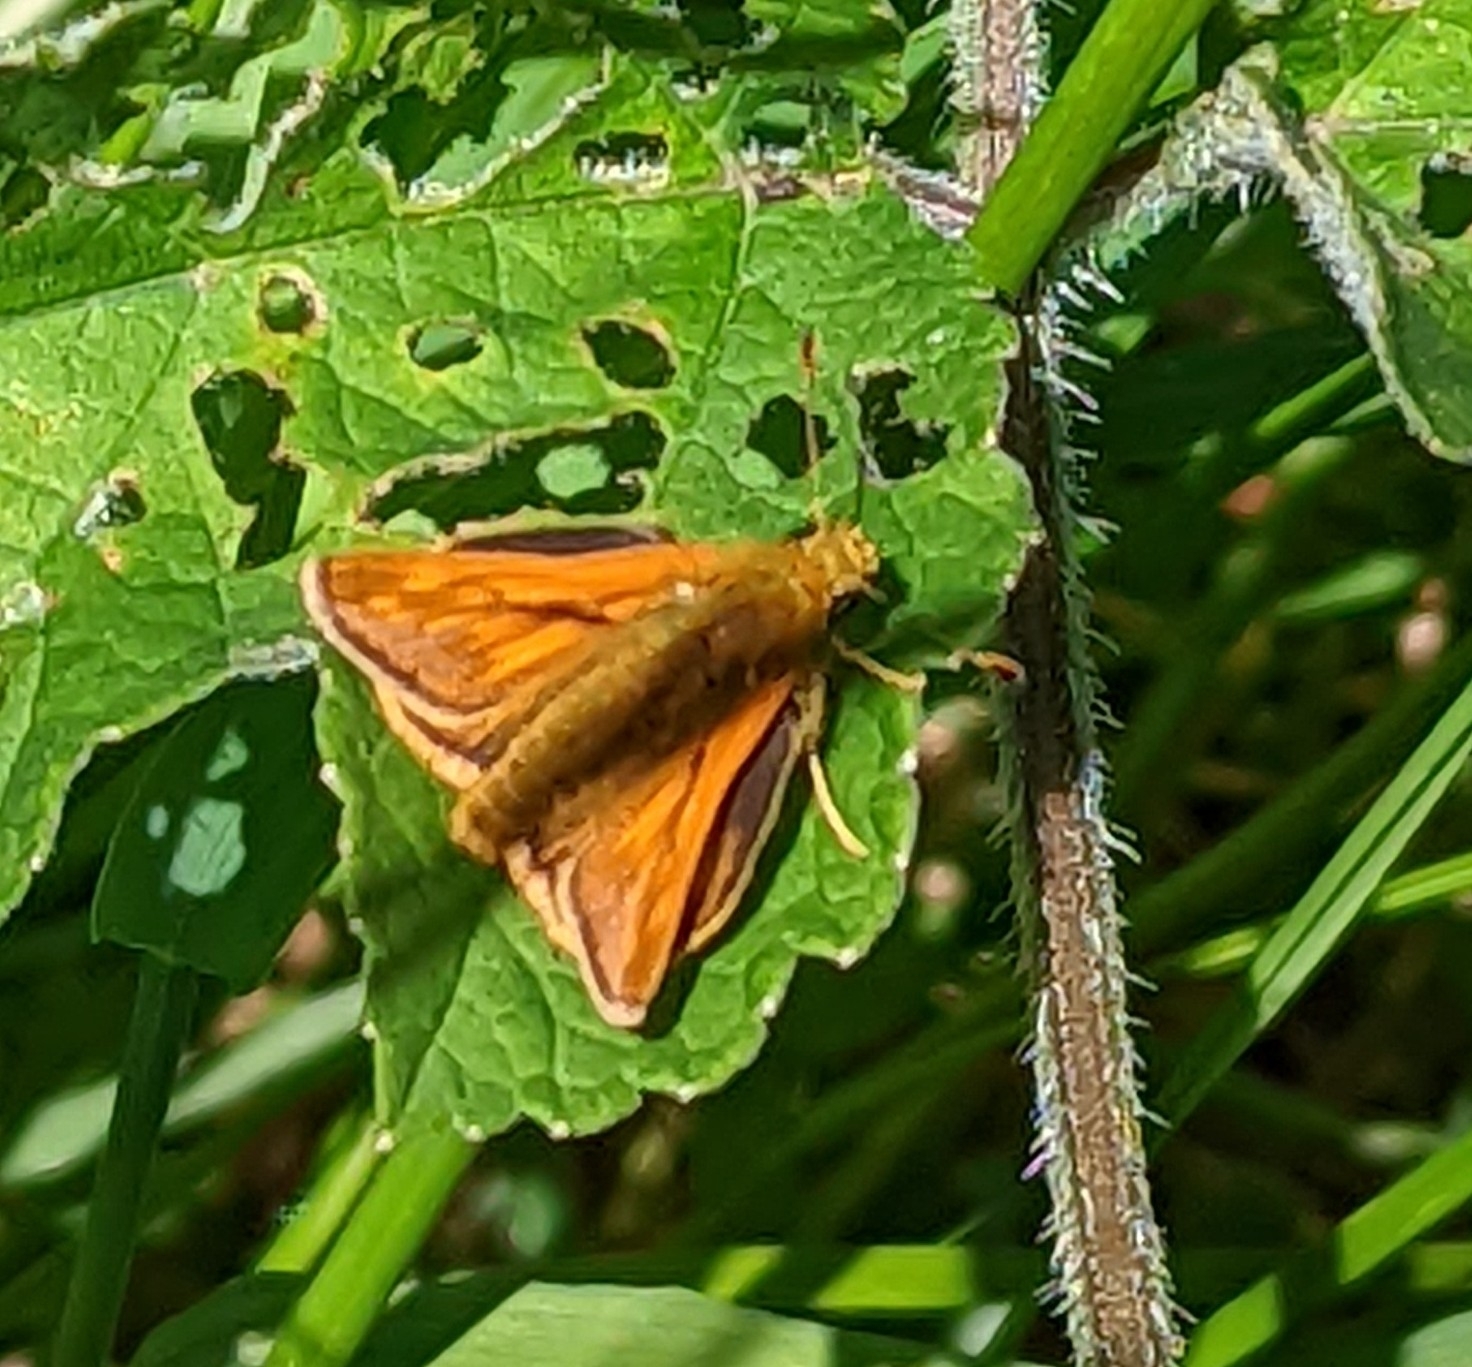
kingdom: Animalia
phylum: Arthropoda
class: Insecta
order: Lepidoptera
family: Hesperiidae
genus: Ochlodes
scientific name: Ochlodes venata
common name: Large skipper
